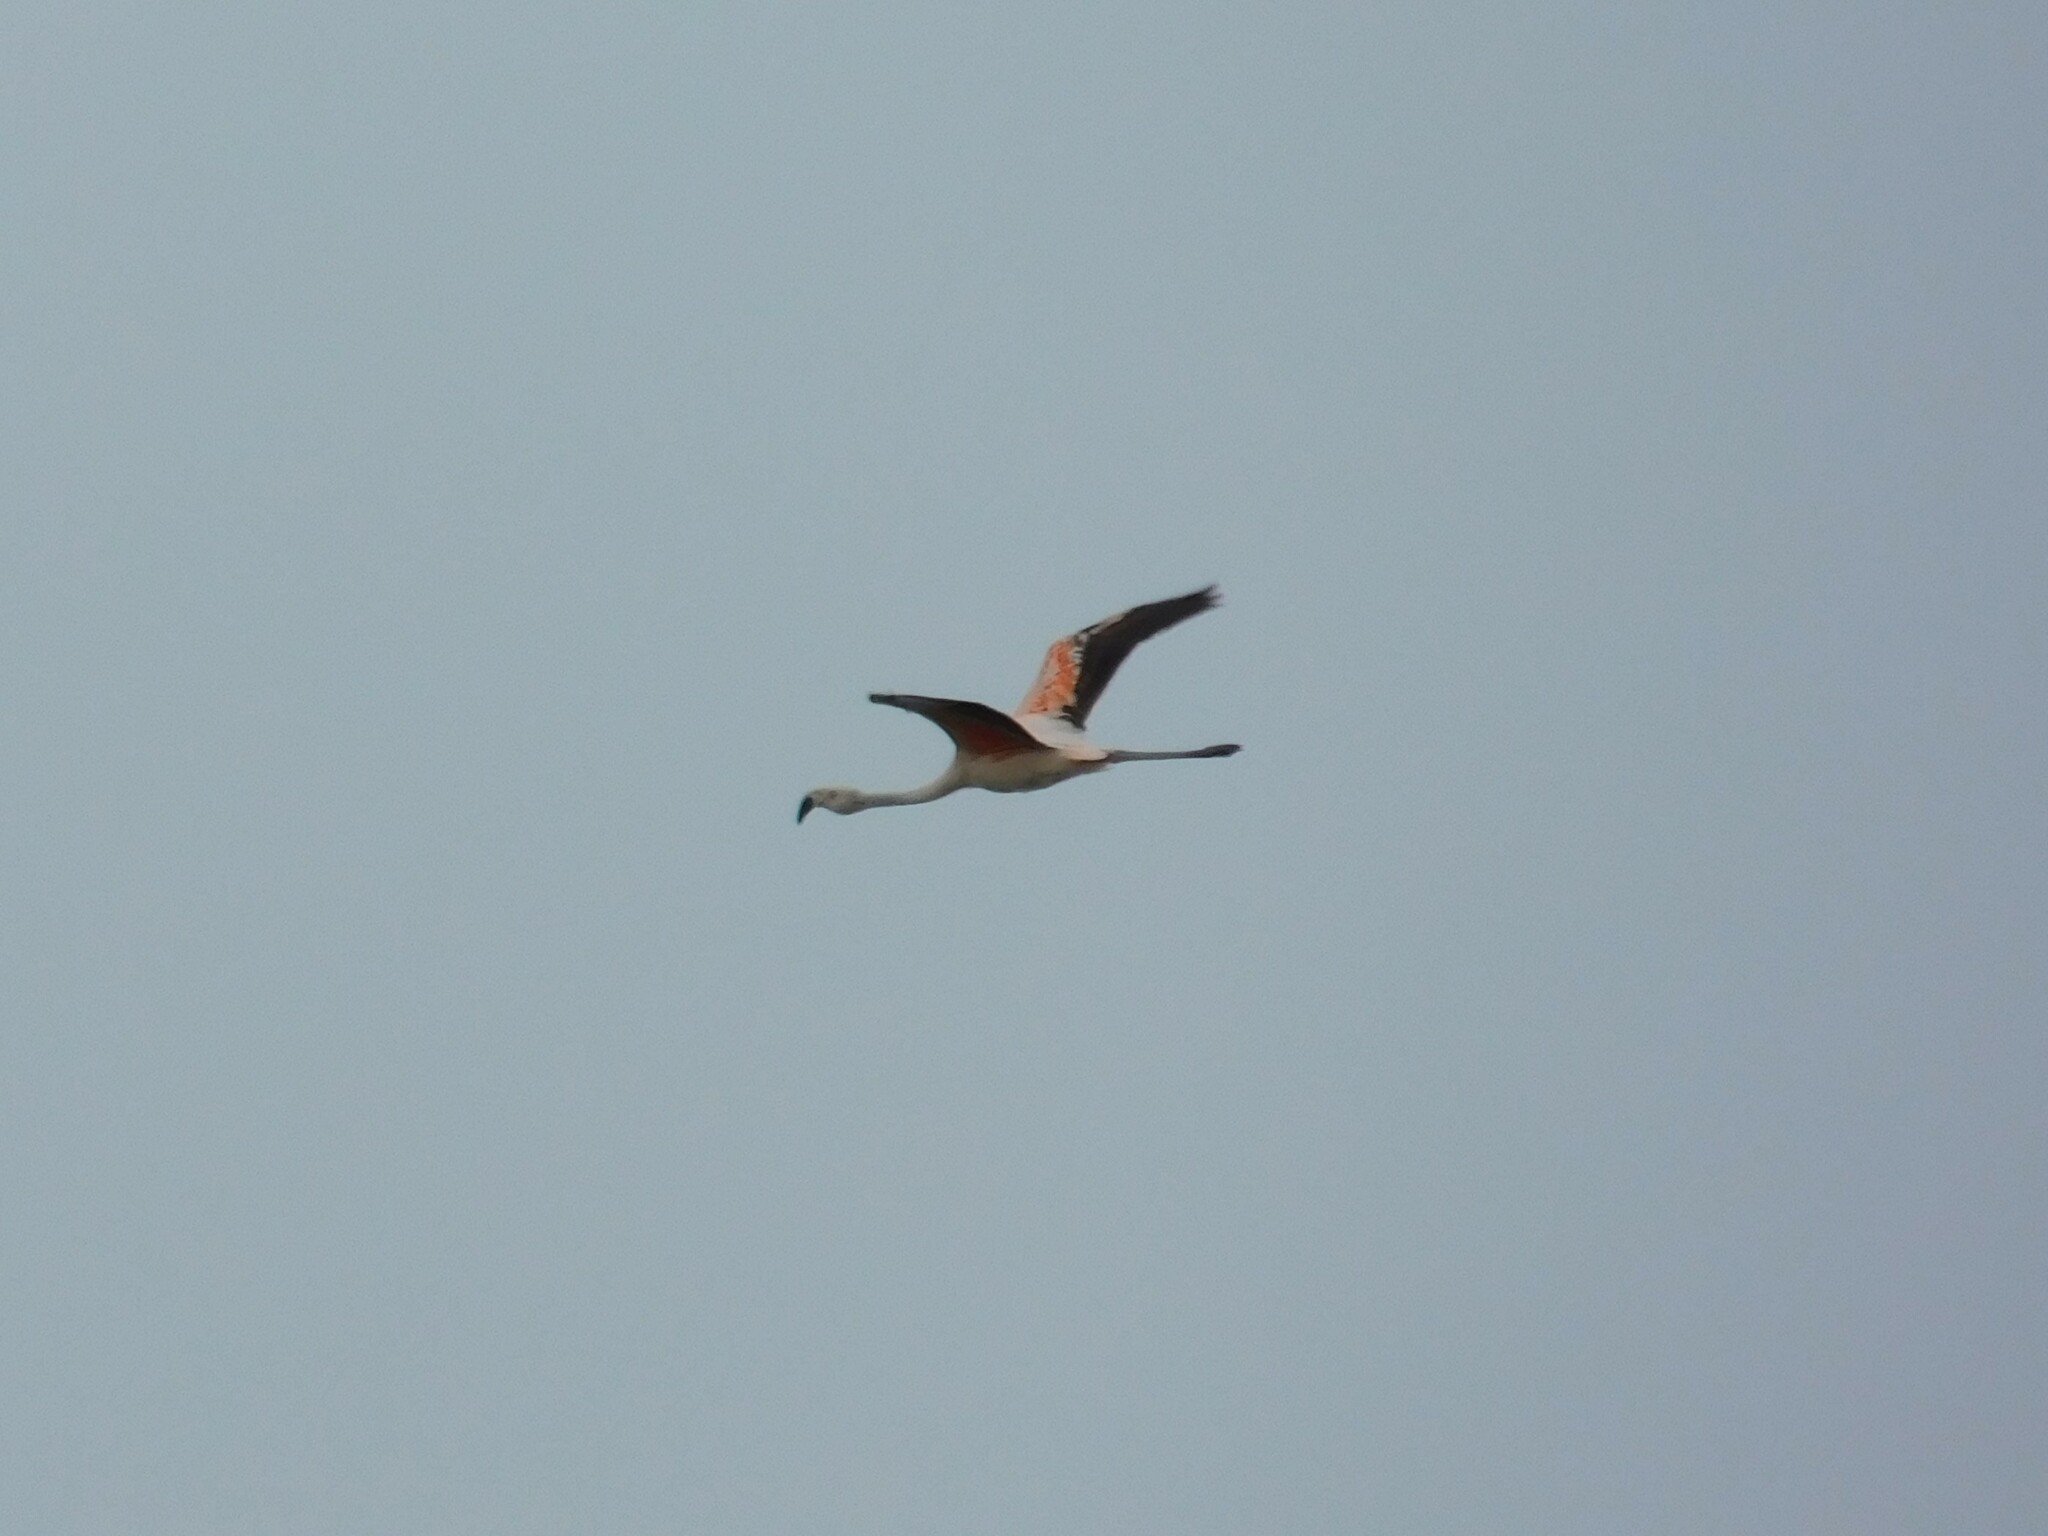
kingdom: Animalia
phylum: Chordata
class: Aves
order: Phoenicopteriformes
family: Phoenicopteridae
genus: Phoenicopterus
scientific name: Phoenicopterus chilensis
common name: Chilean flamingo
